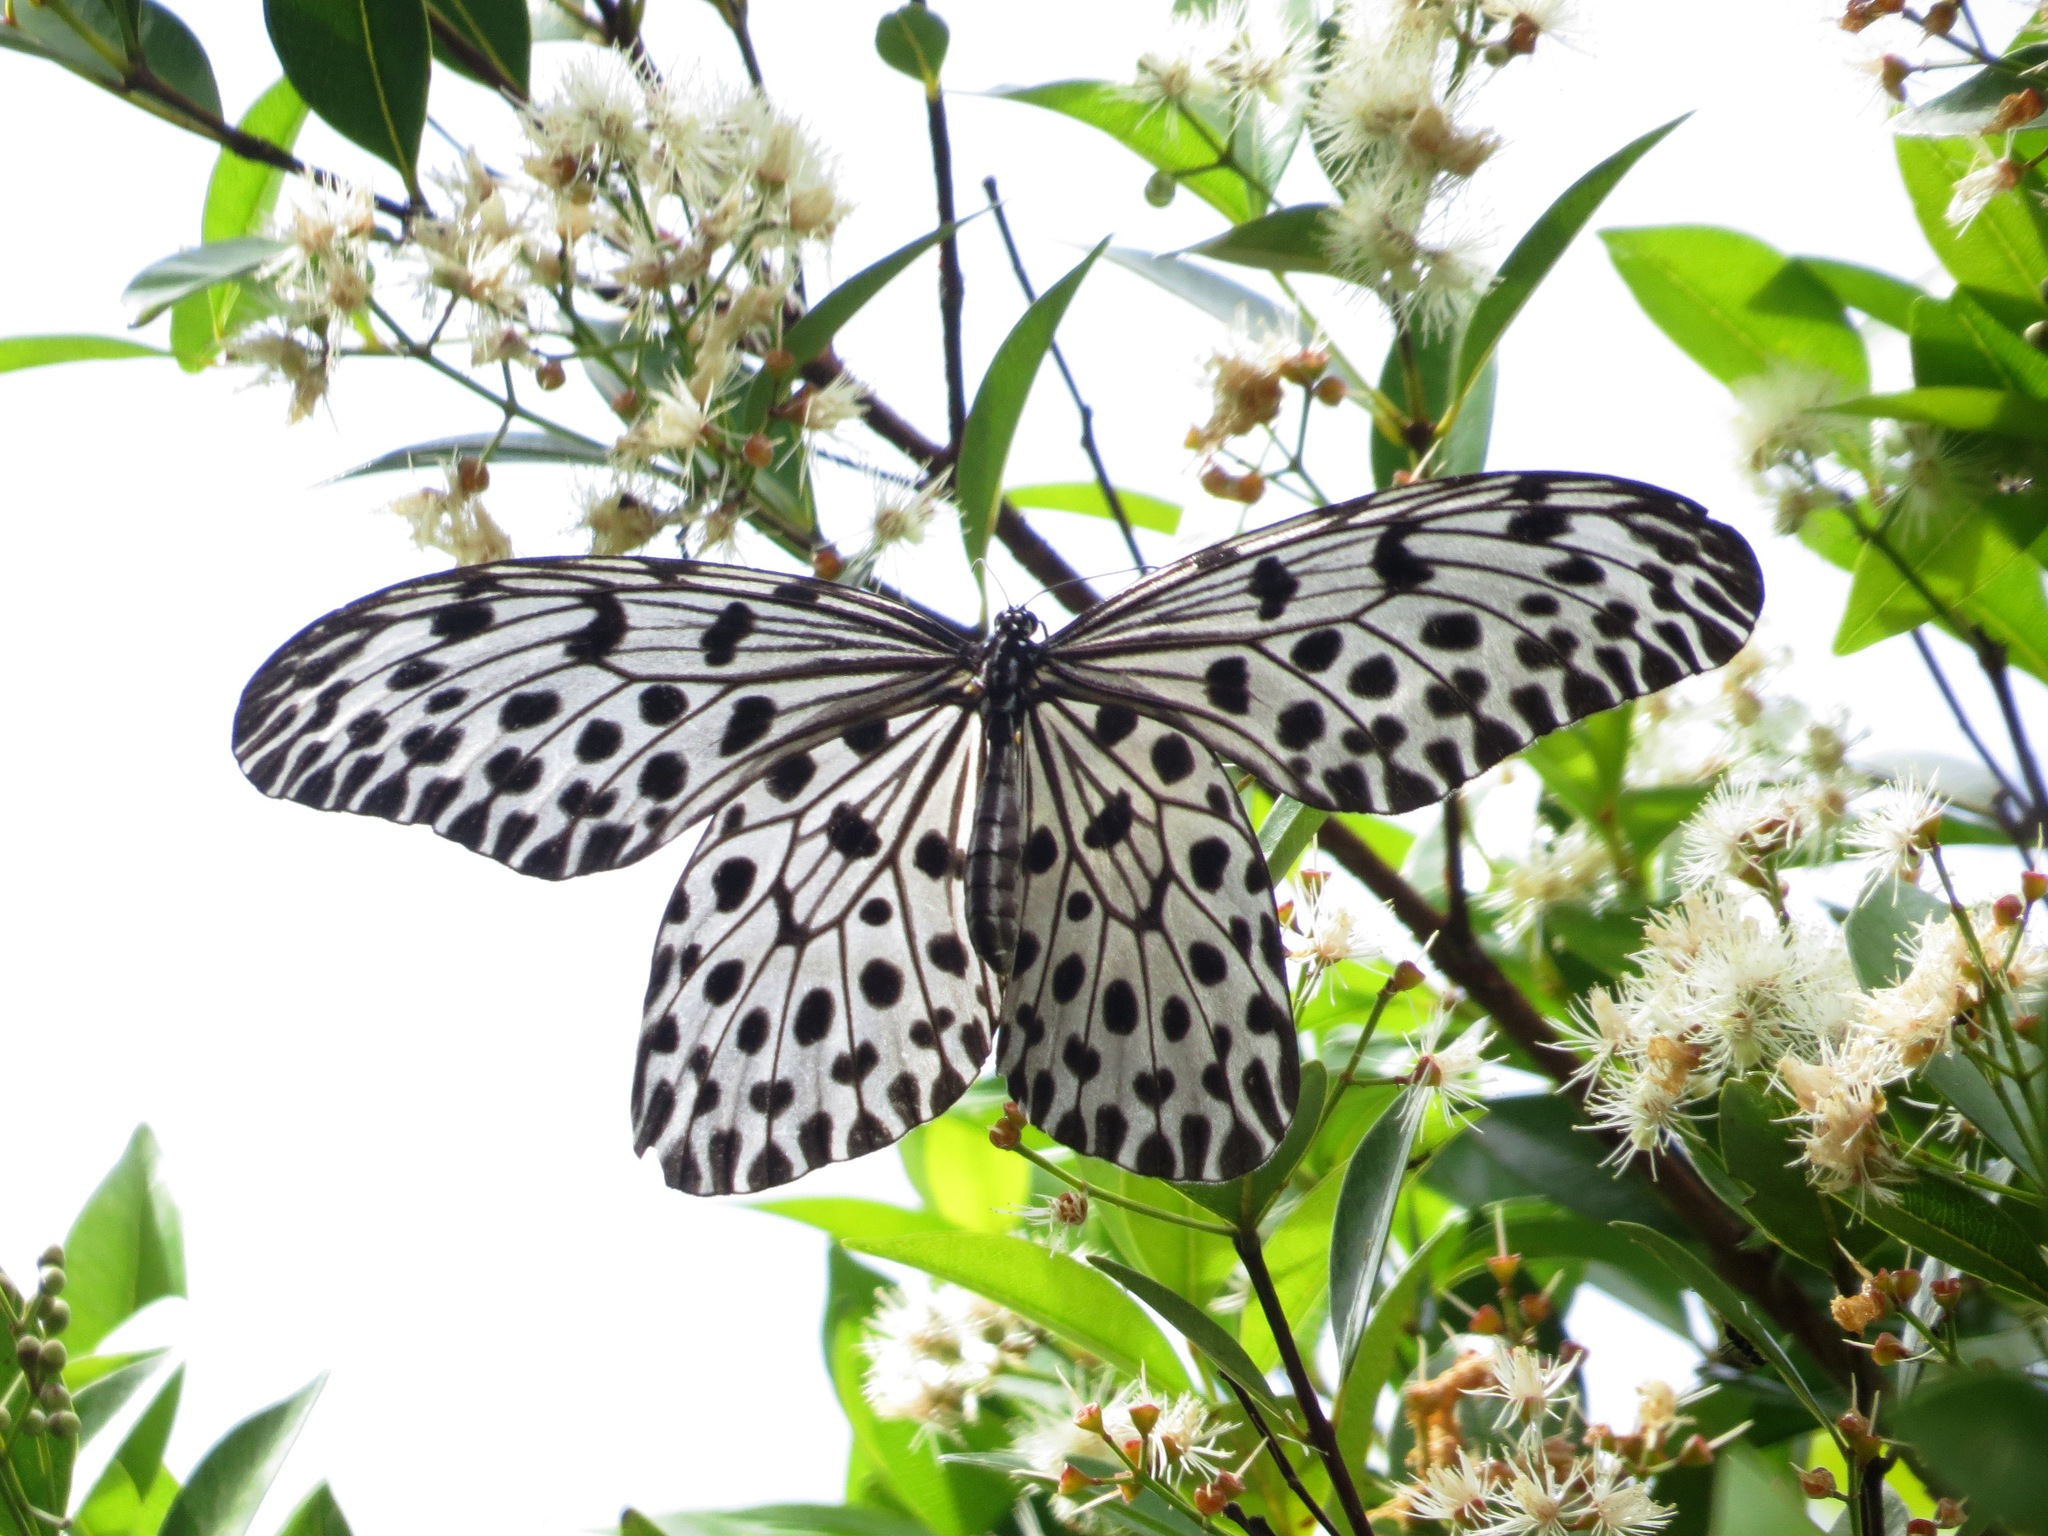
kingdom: Animalia
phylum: Arthropoda
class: Insecta
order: Lepidoptera
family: Nymphalidae
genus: Idea
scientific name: Idea stolli
